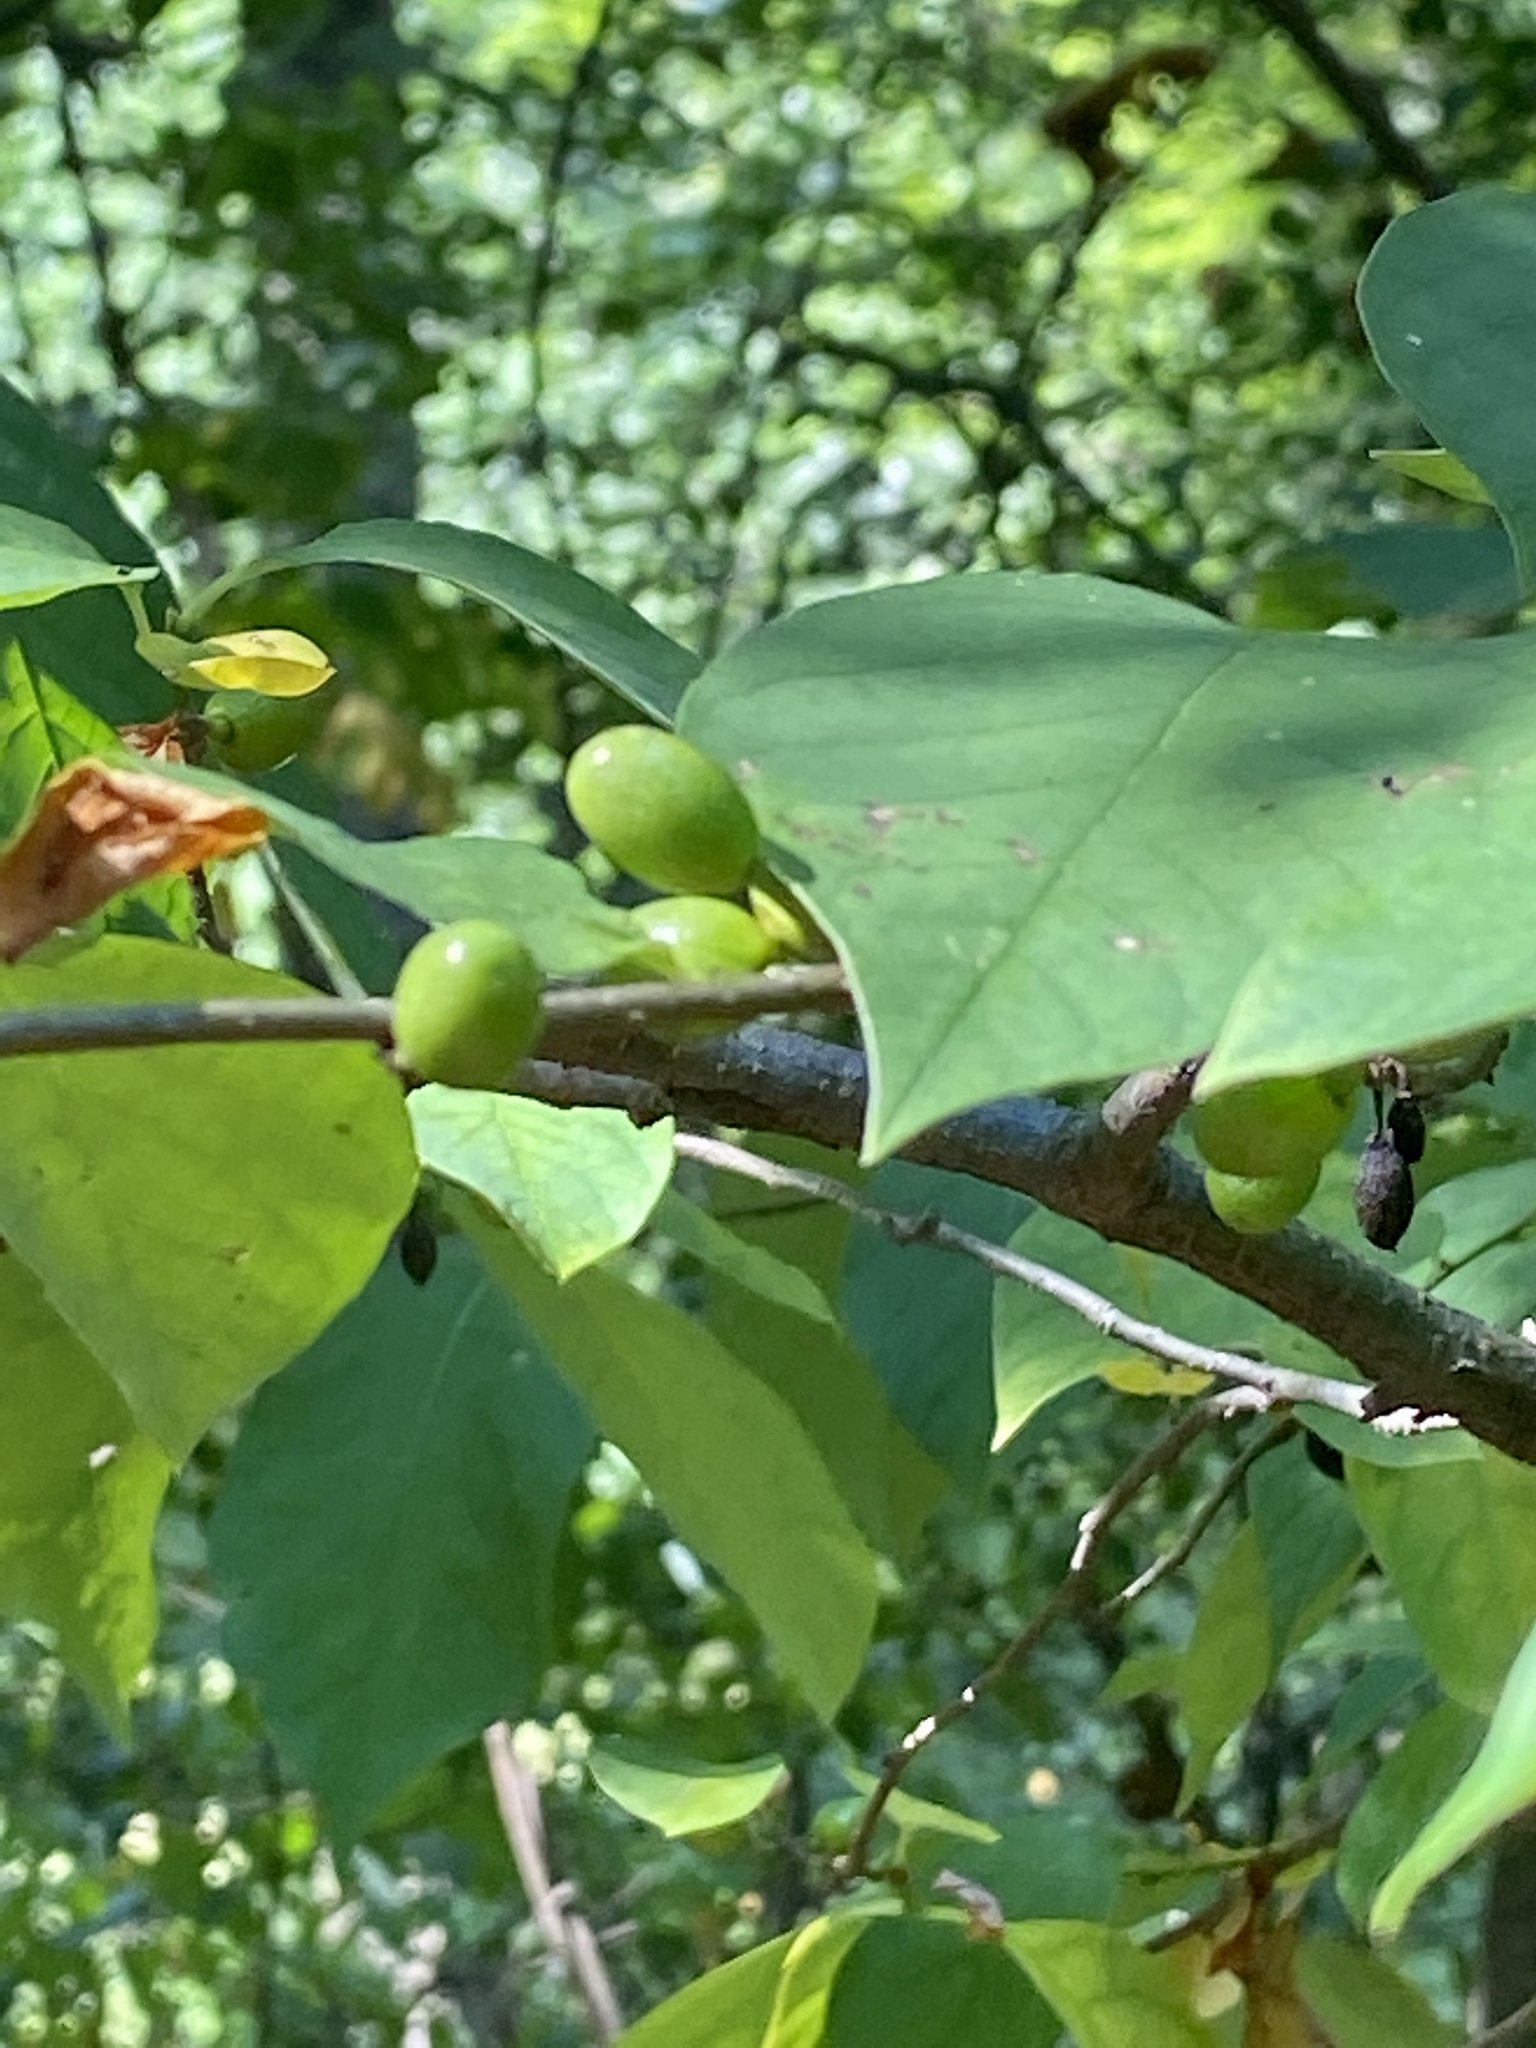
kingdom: Plantae
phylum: Tracheophyta
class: Magnoliopsida
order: Laurales
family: Lauraceae
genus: Lindera
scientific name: Lindera benzoin
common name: Spicebush
